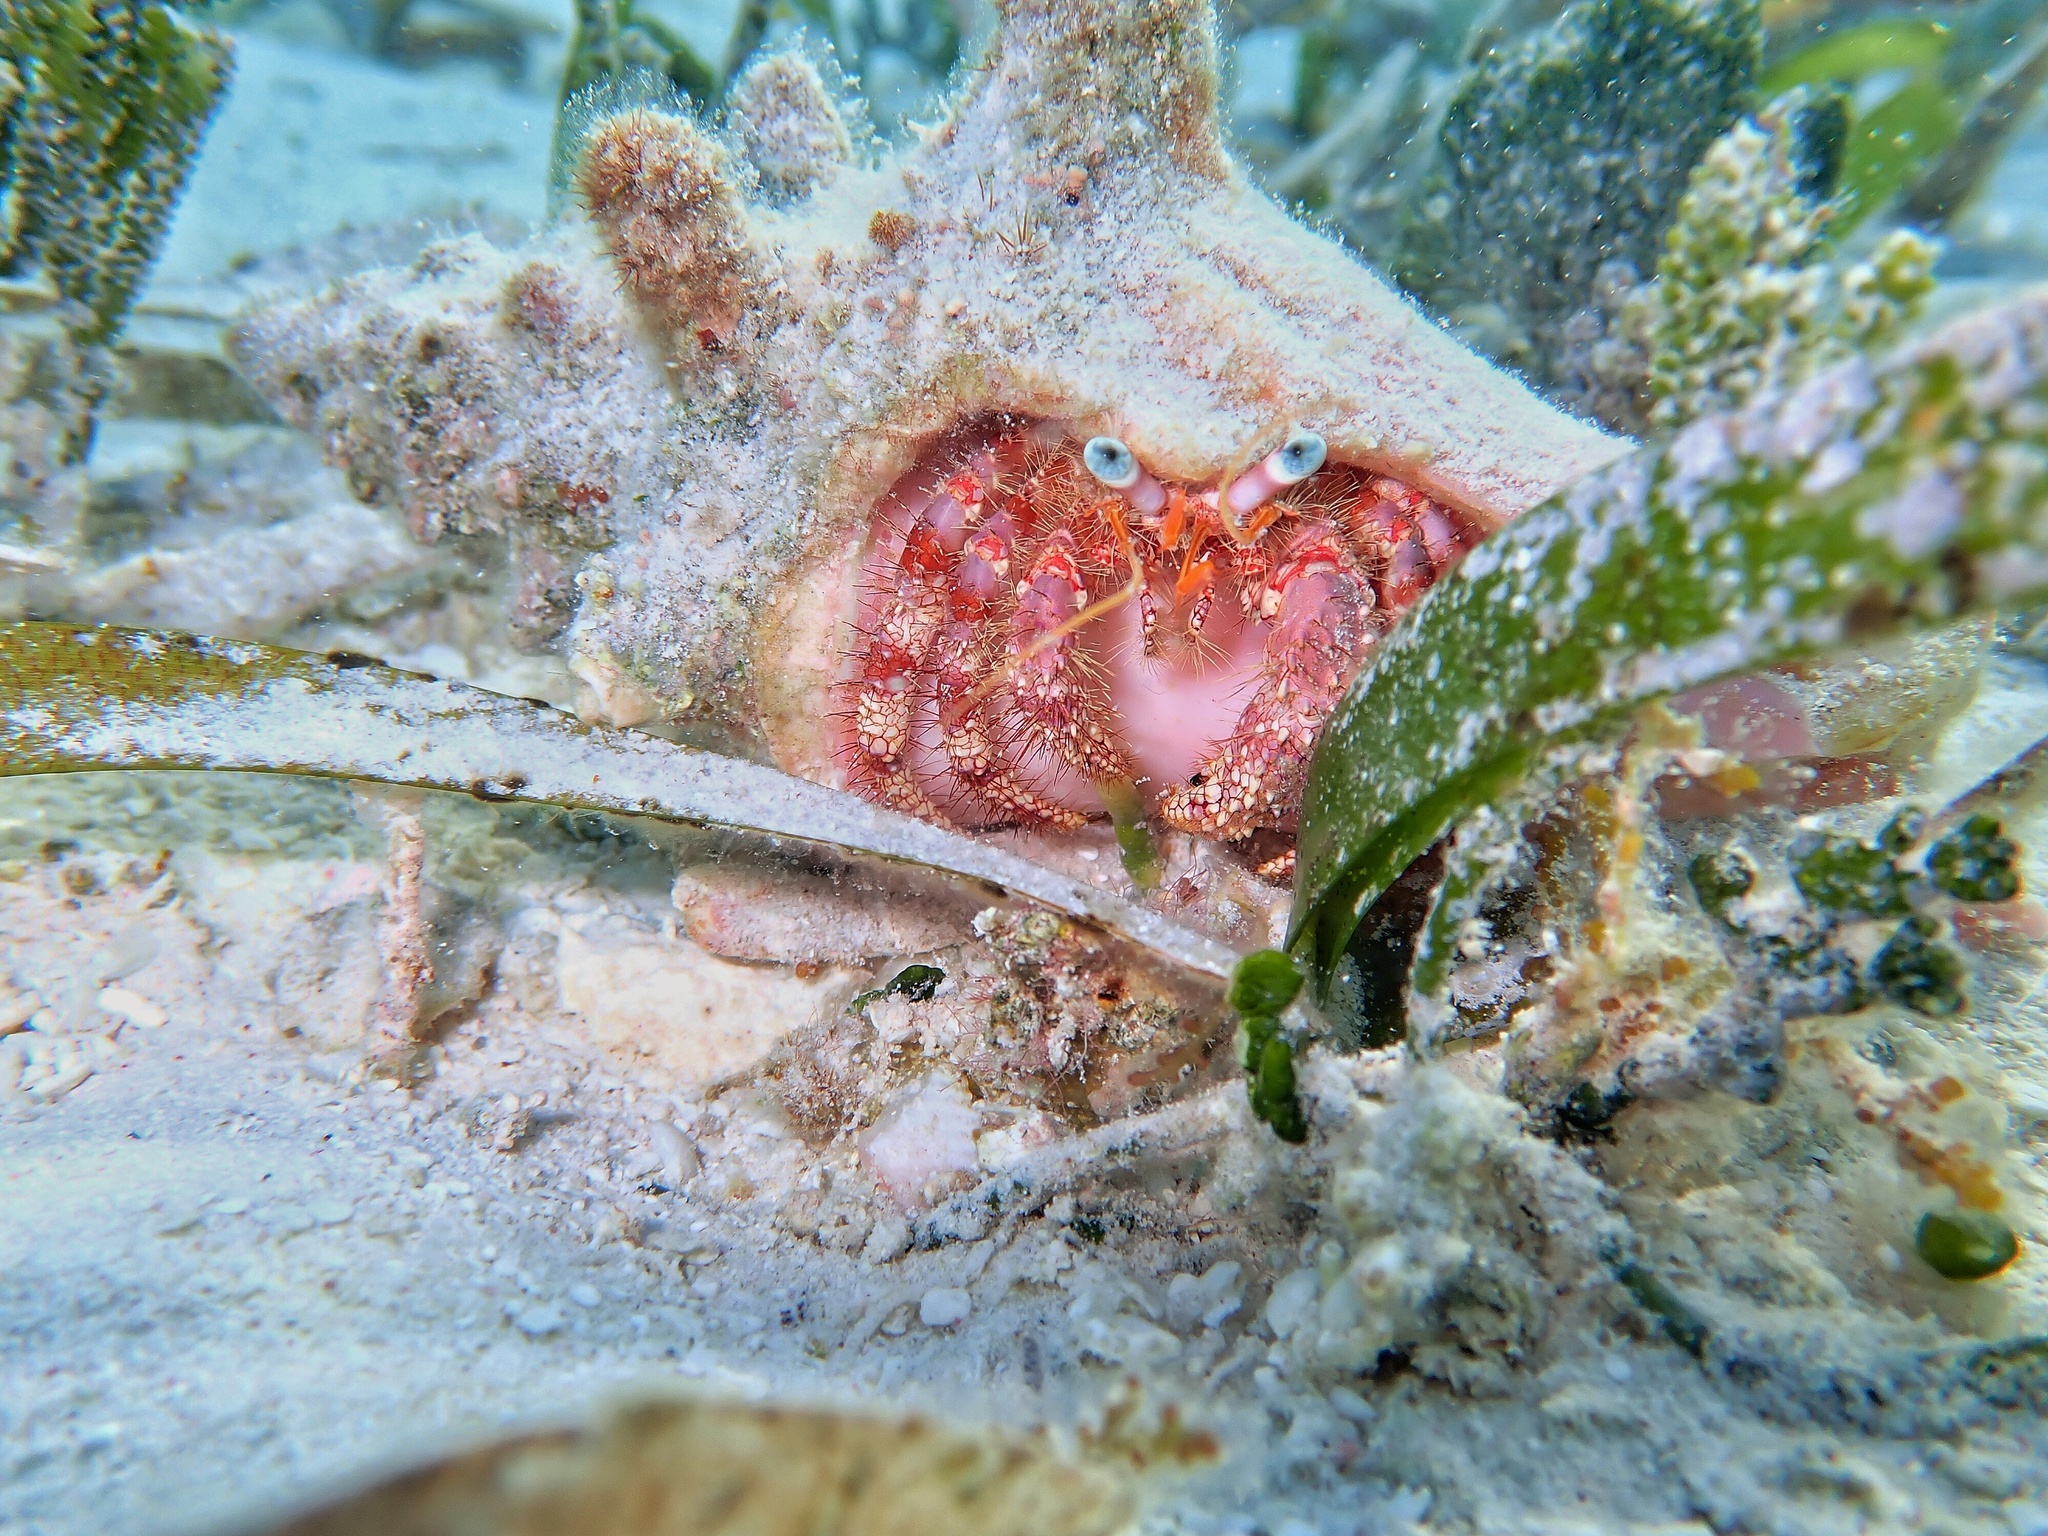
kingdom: Animalia
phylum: Arthropoda
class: Malacostraca
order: Decapoda
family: Diogenidae
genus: Dardanus
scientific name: Dardanus venosus
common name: Stareye hermit
